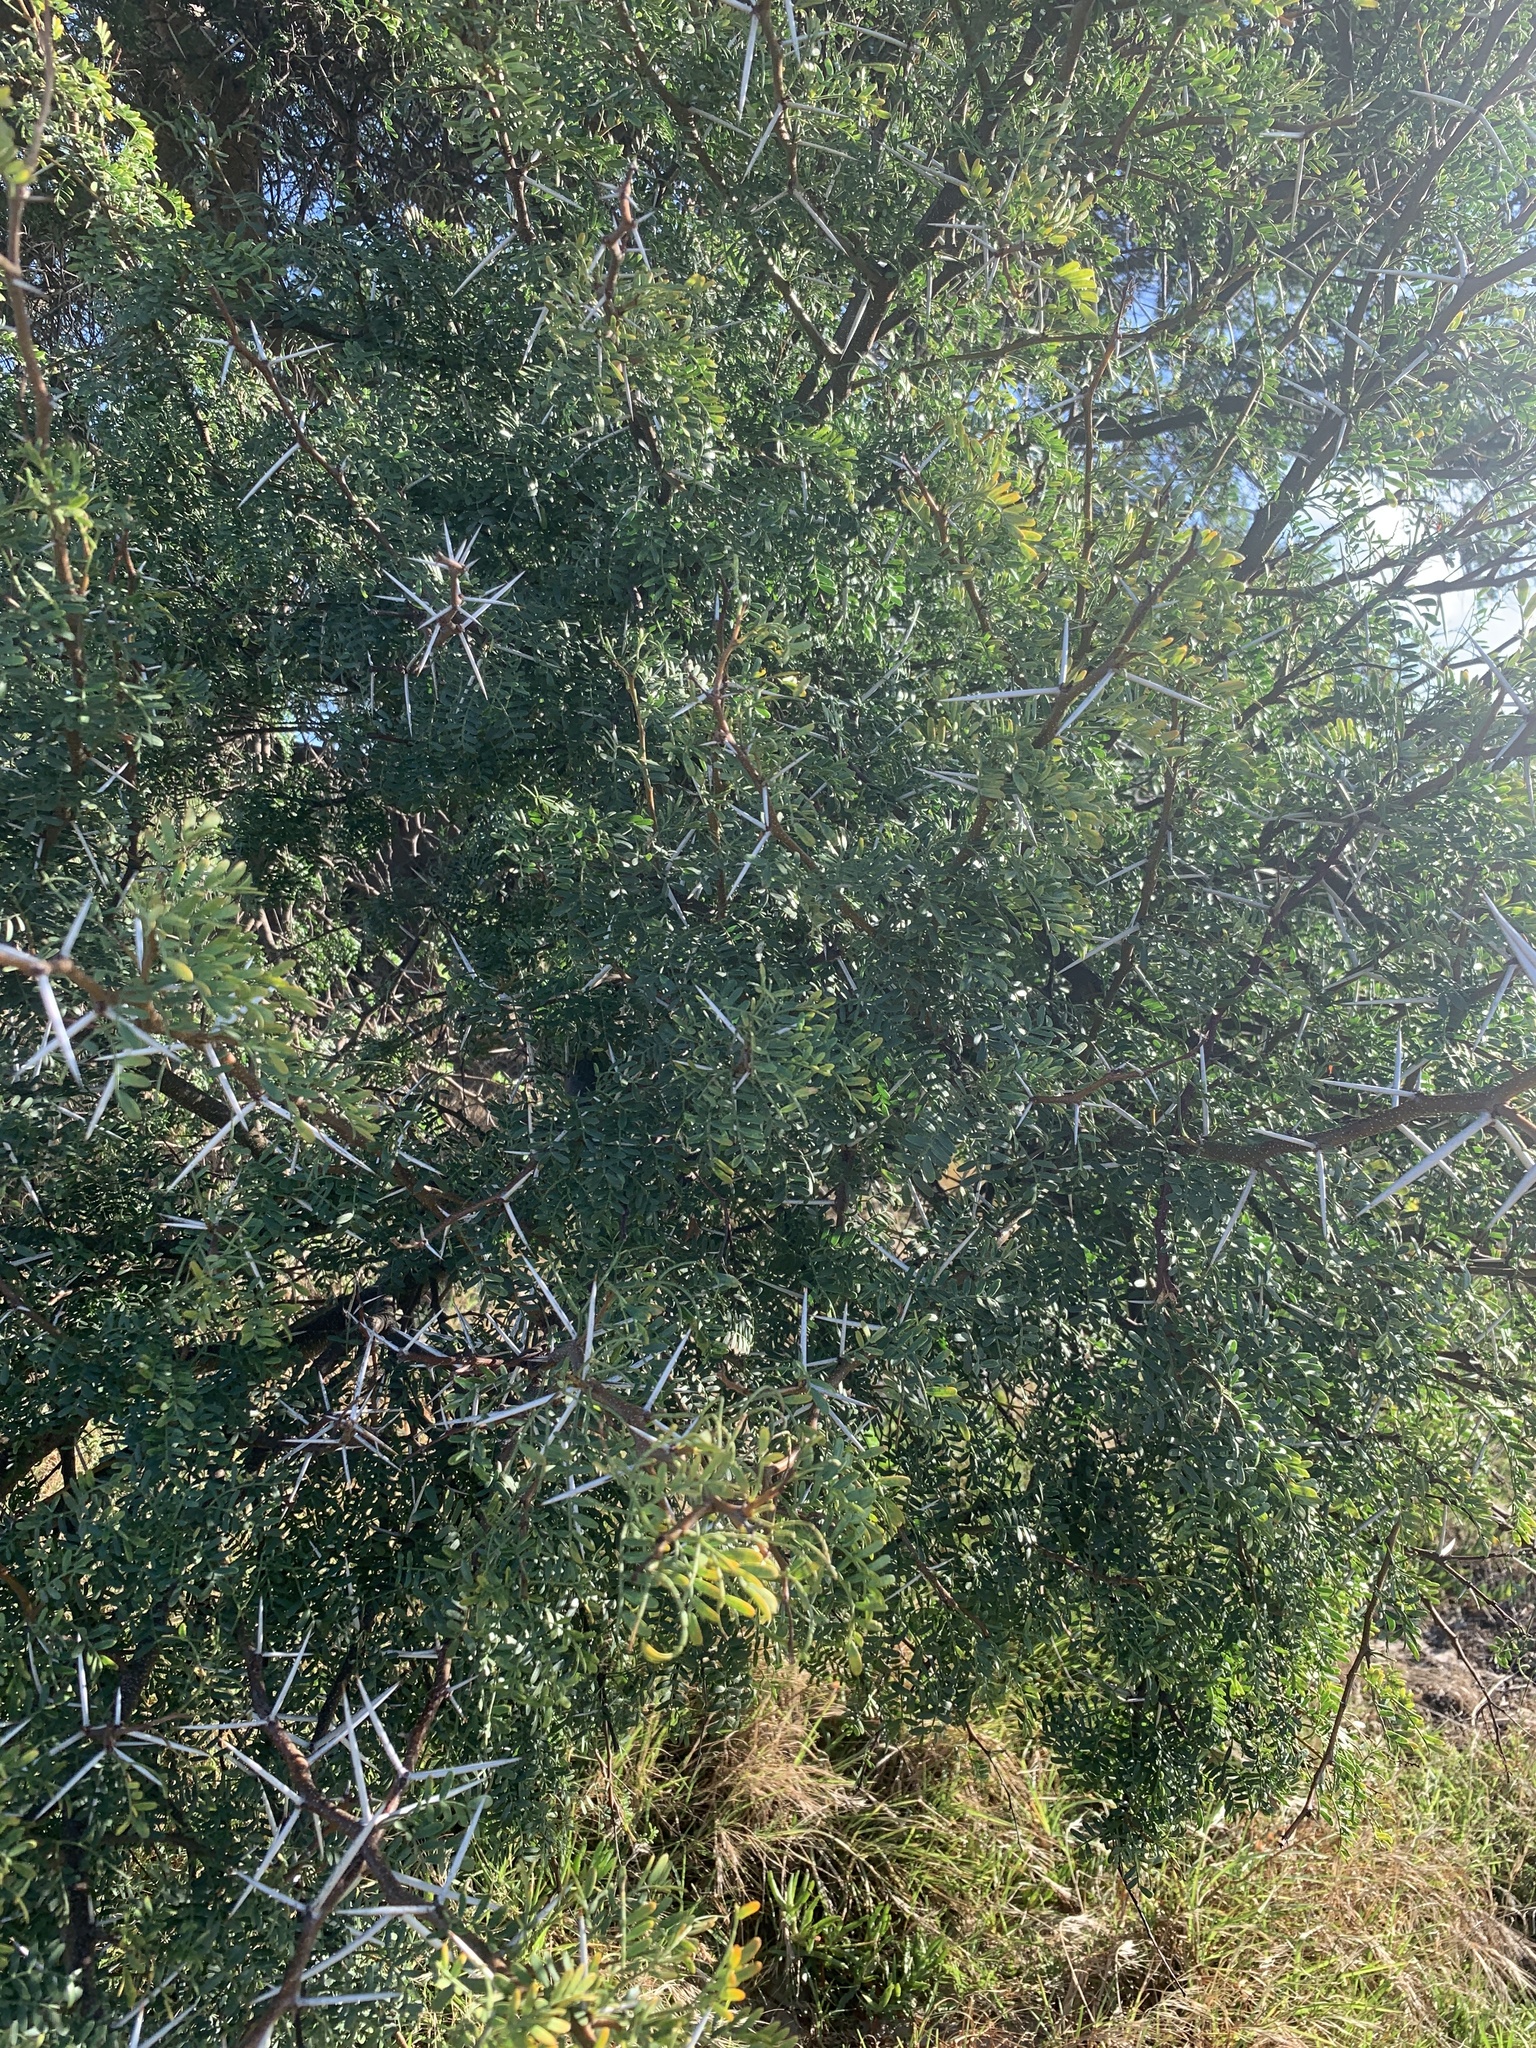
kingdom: Plantae
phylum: Tracheophyta
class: Magnoliopsida
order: Fabales
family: Fabaceae
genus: Vachellia
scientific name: Vachellia karroo
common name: Sweet thorn
